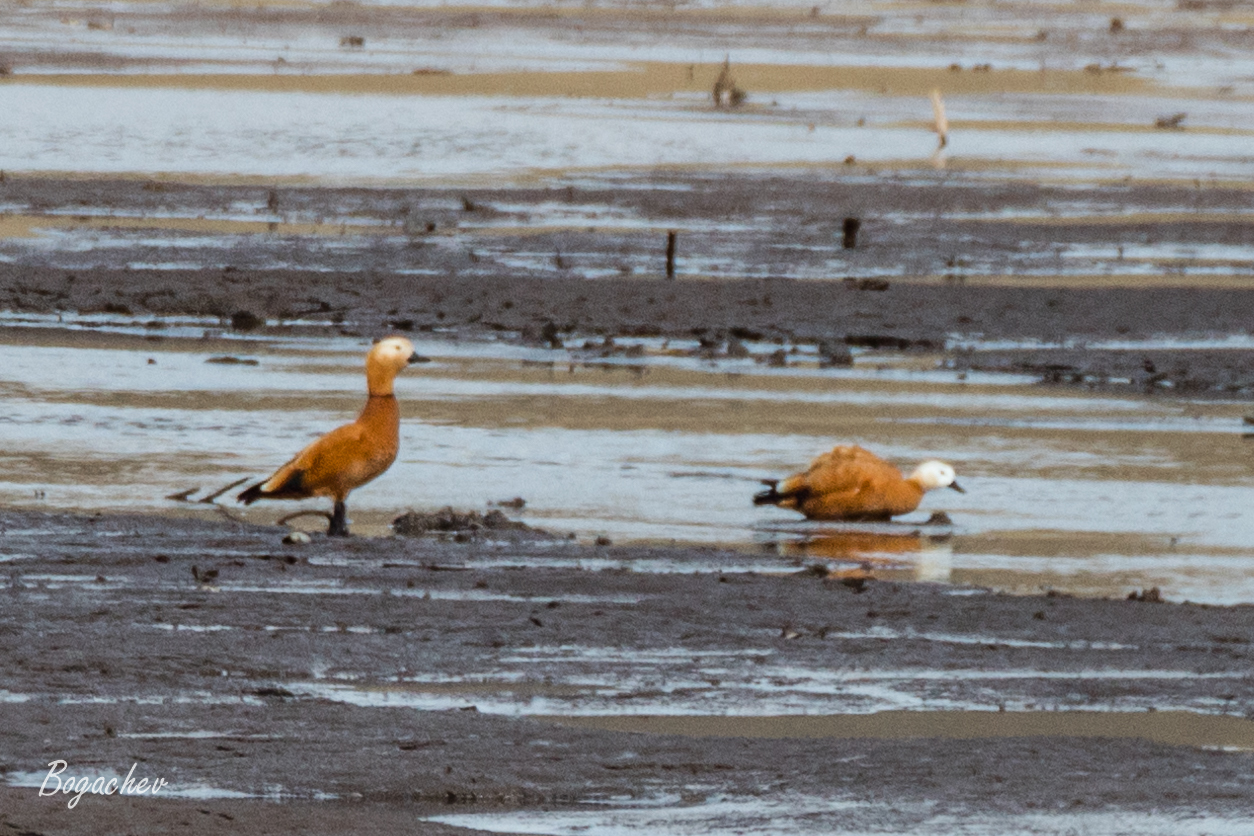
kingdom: Animalia
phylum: Chordata
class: Aves
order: Anseriformes
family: Anatidae
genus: Tadorna
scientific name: Tadorna ferruginea
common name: Ruddy shelduck
